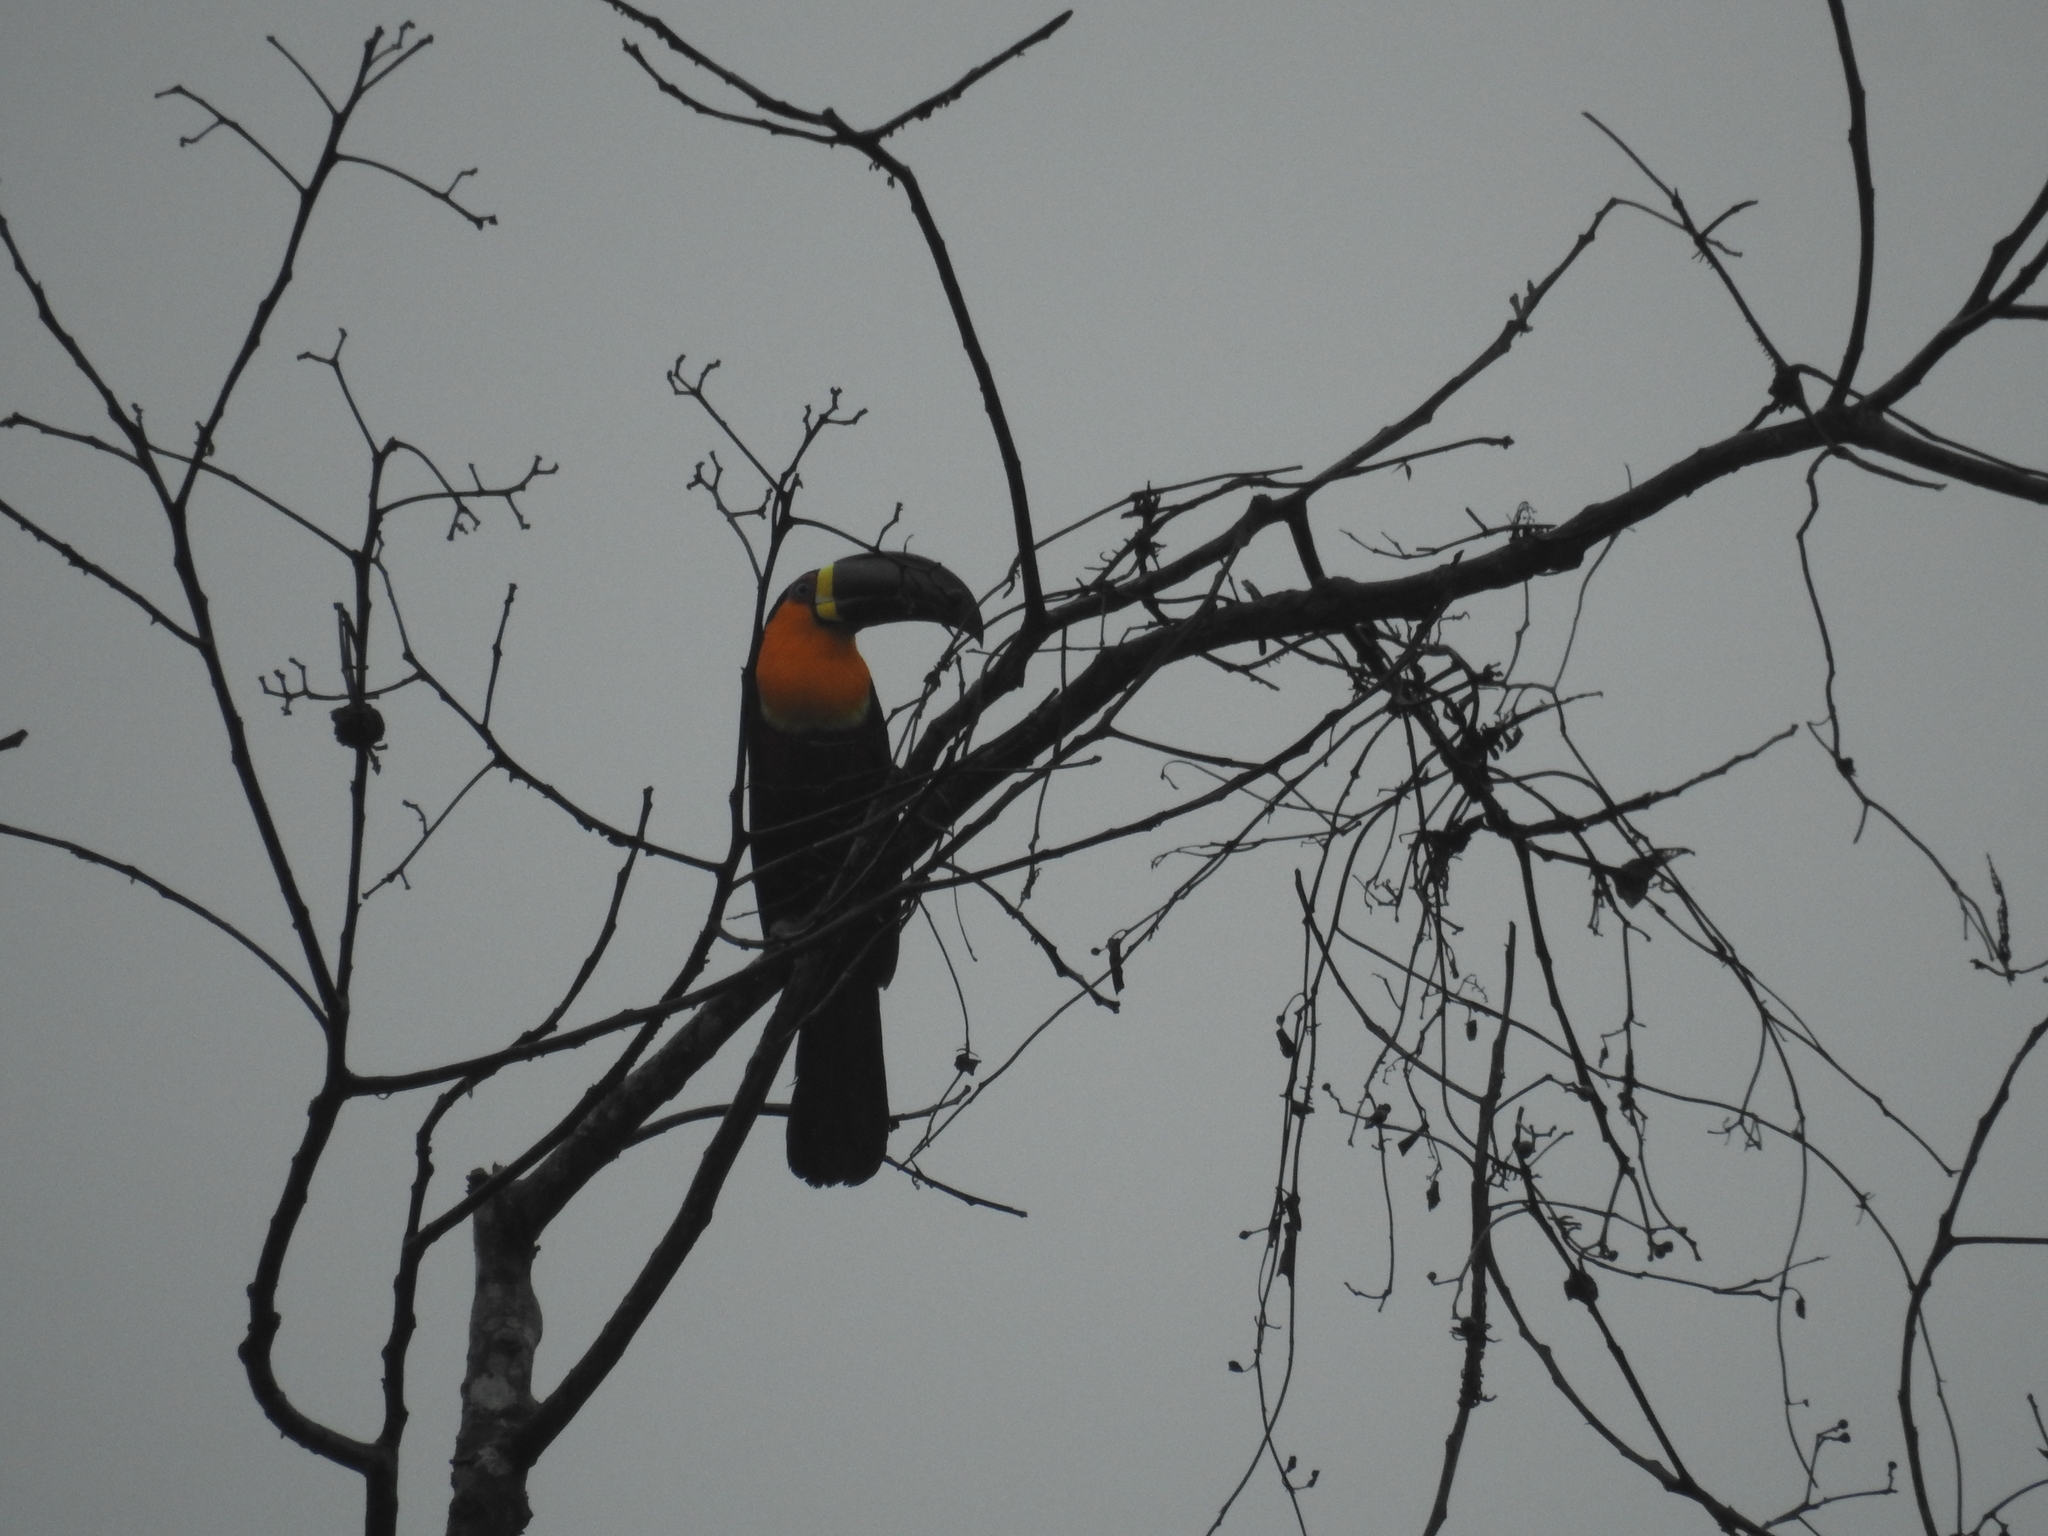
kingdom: Animalia
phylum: Chordata
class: Aves
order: Piciformes
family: Ramphastidae
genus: Ramphastos
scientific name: Ramphastos vitellinus
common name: Channel-billed toucan
